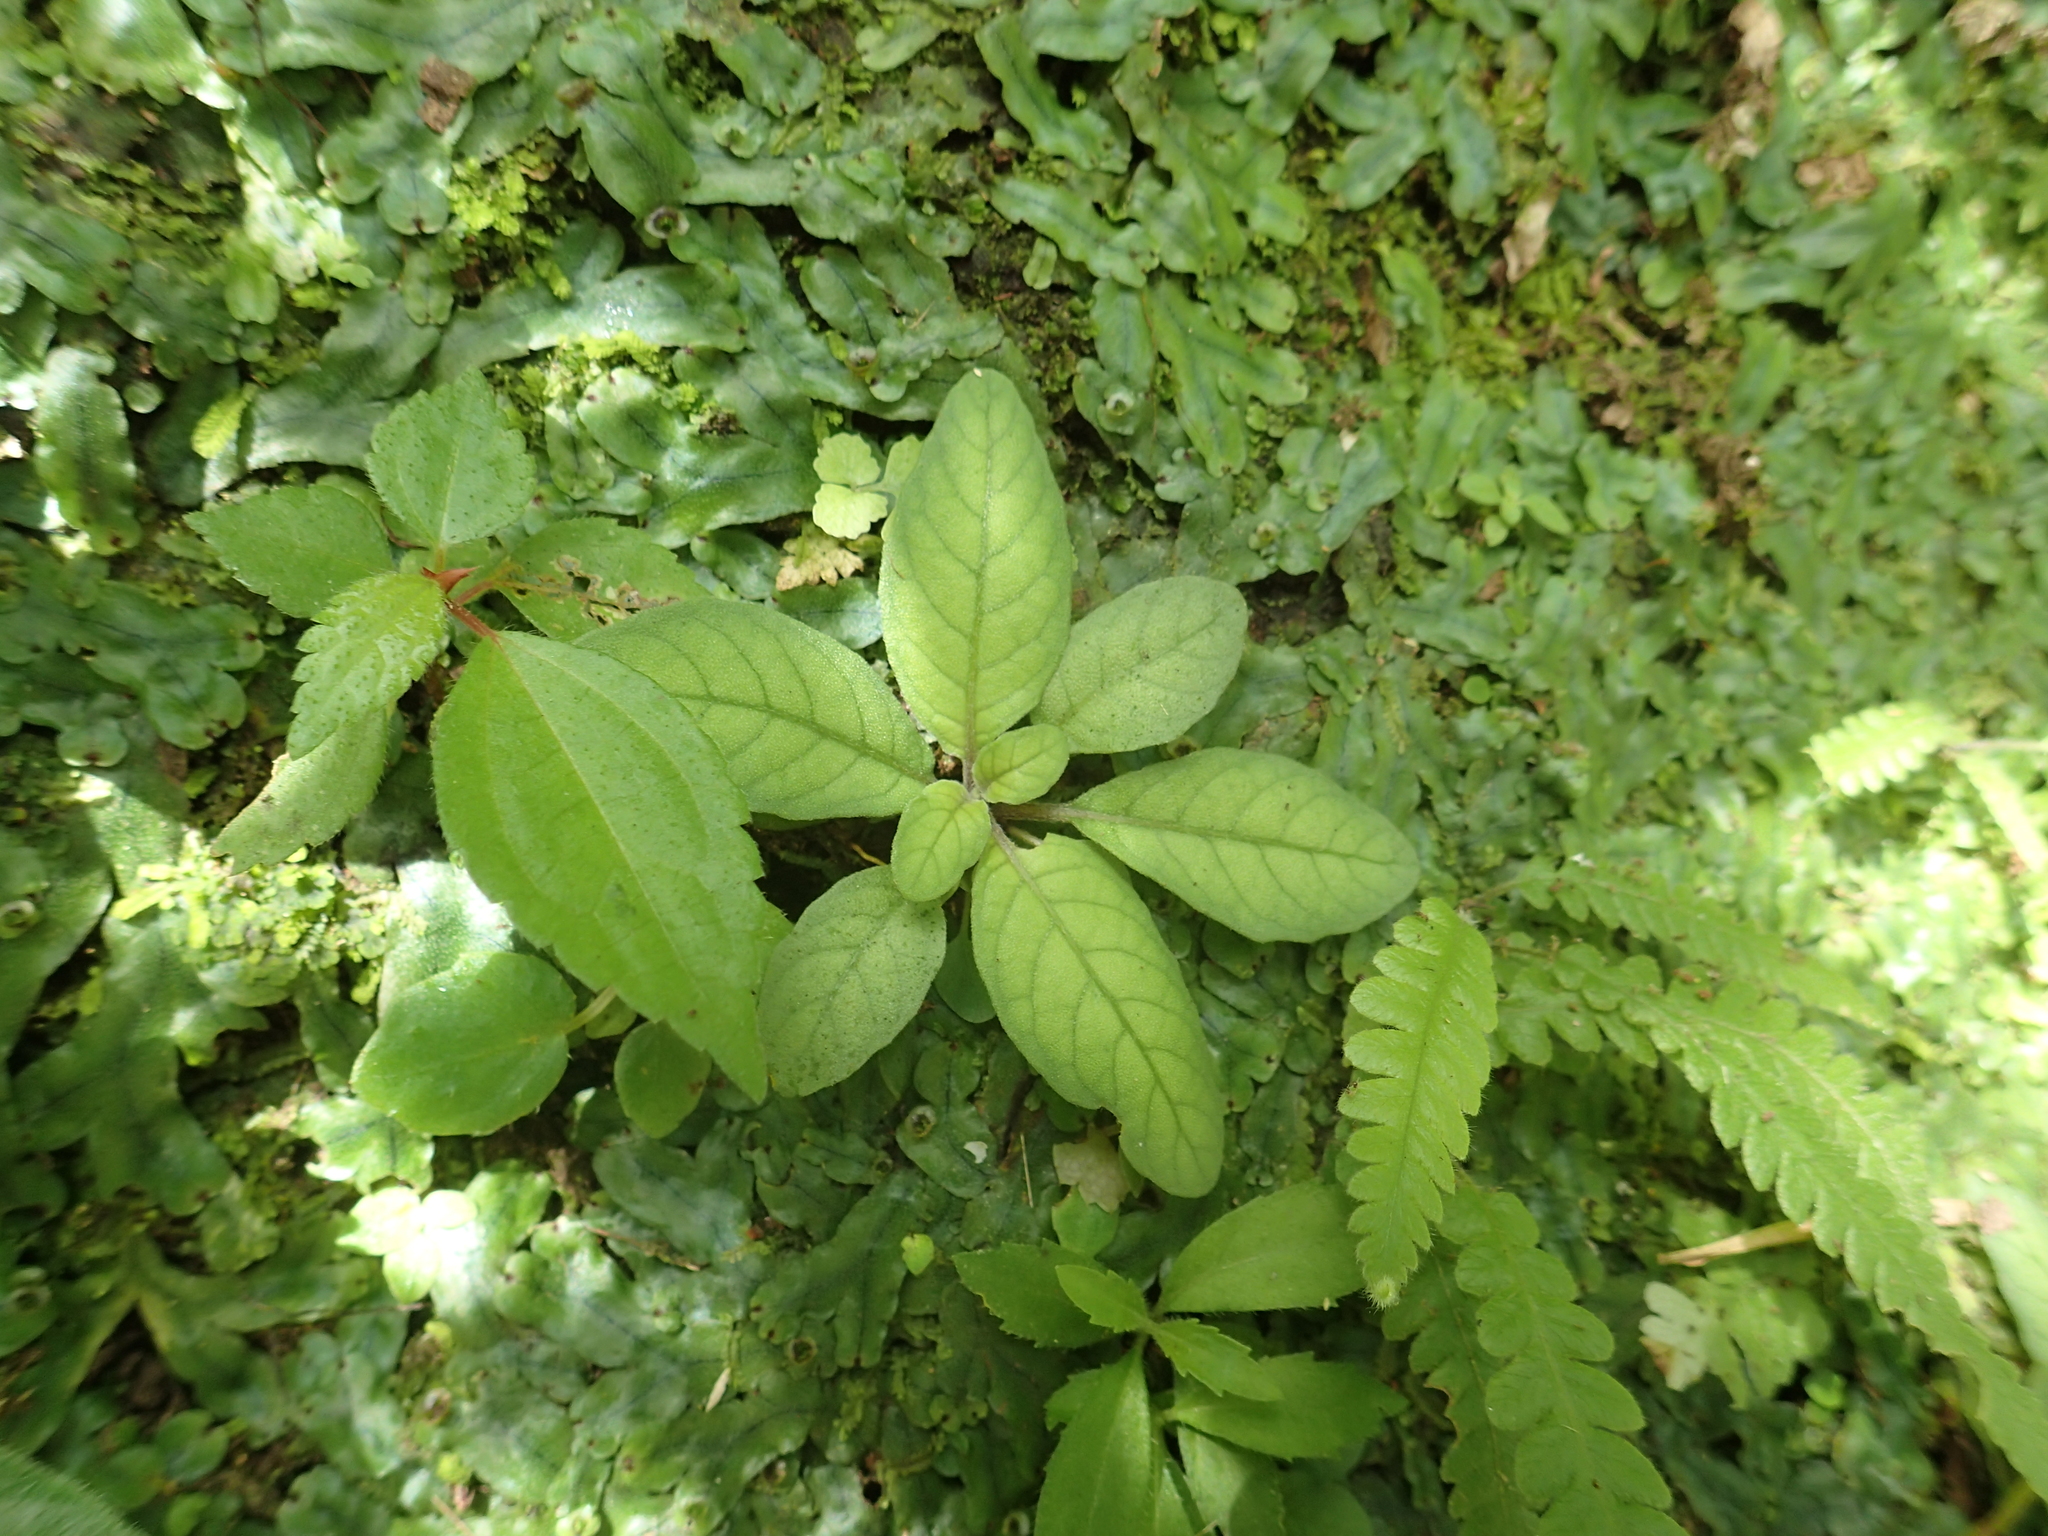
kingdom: Plantae
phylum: Tracheophyta
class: Magnoliopsida
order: Lamiales
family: Acanthaceae
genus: Staurogyne
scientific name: Staurogyne concinnula
